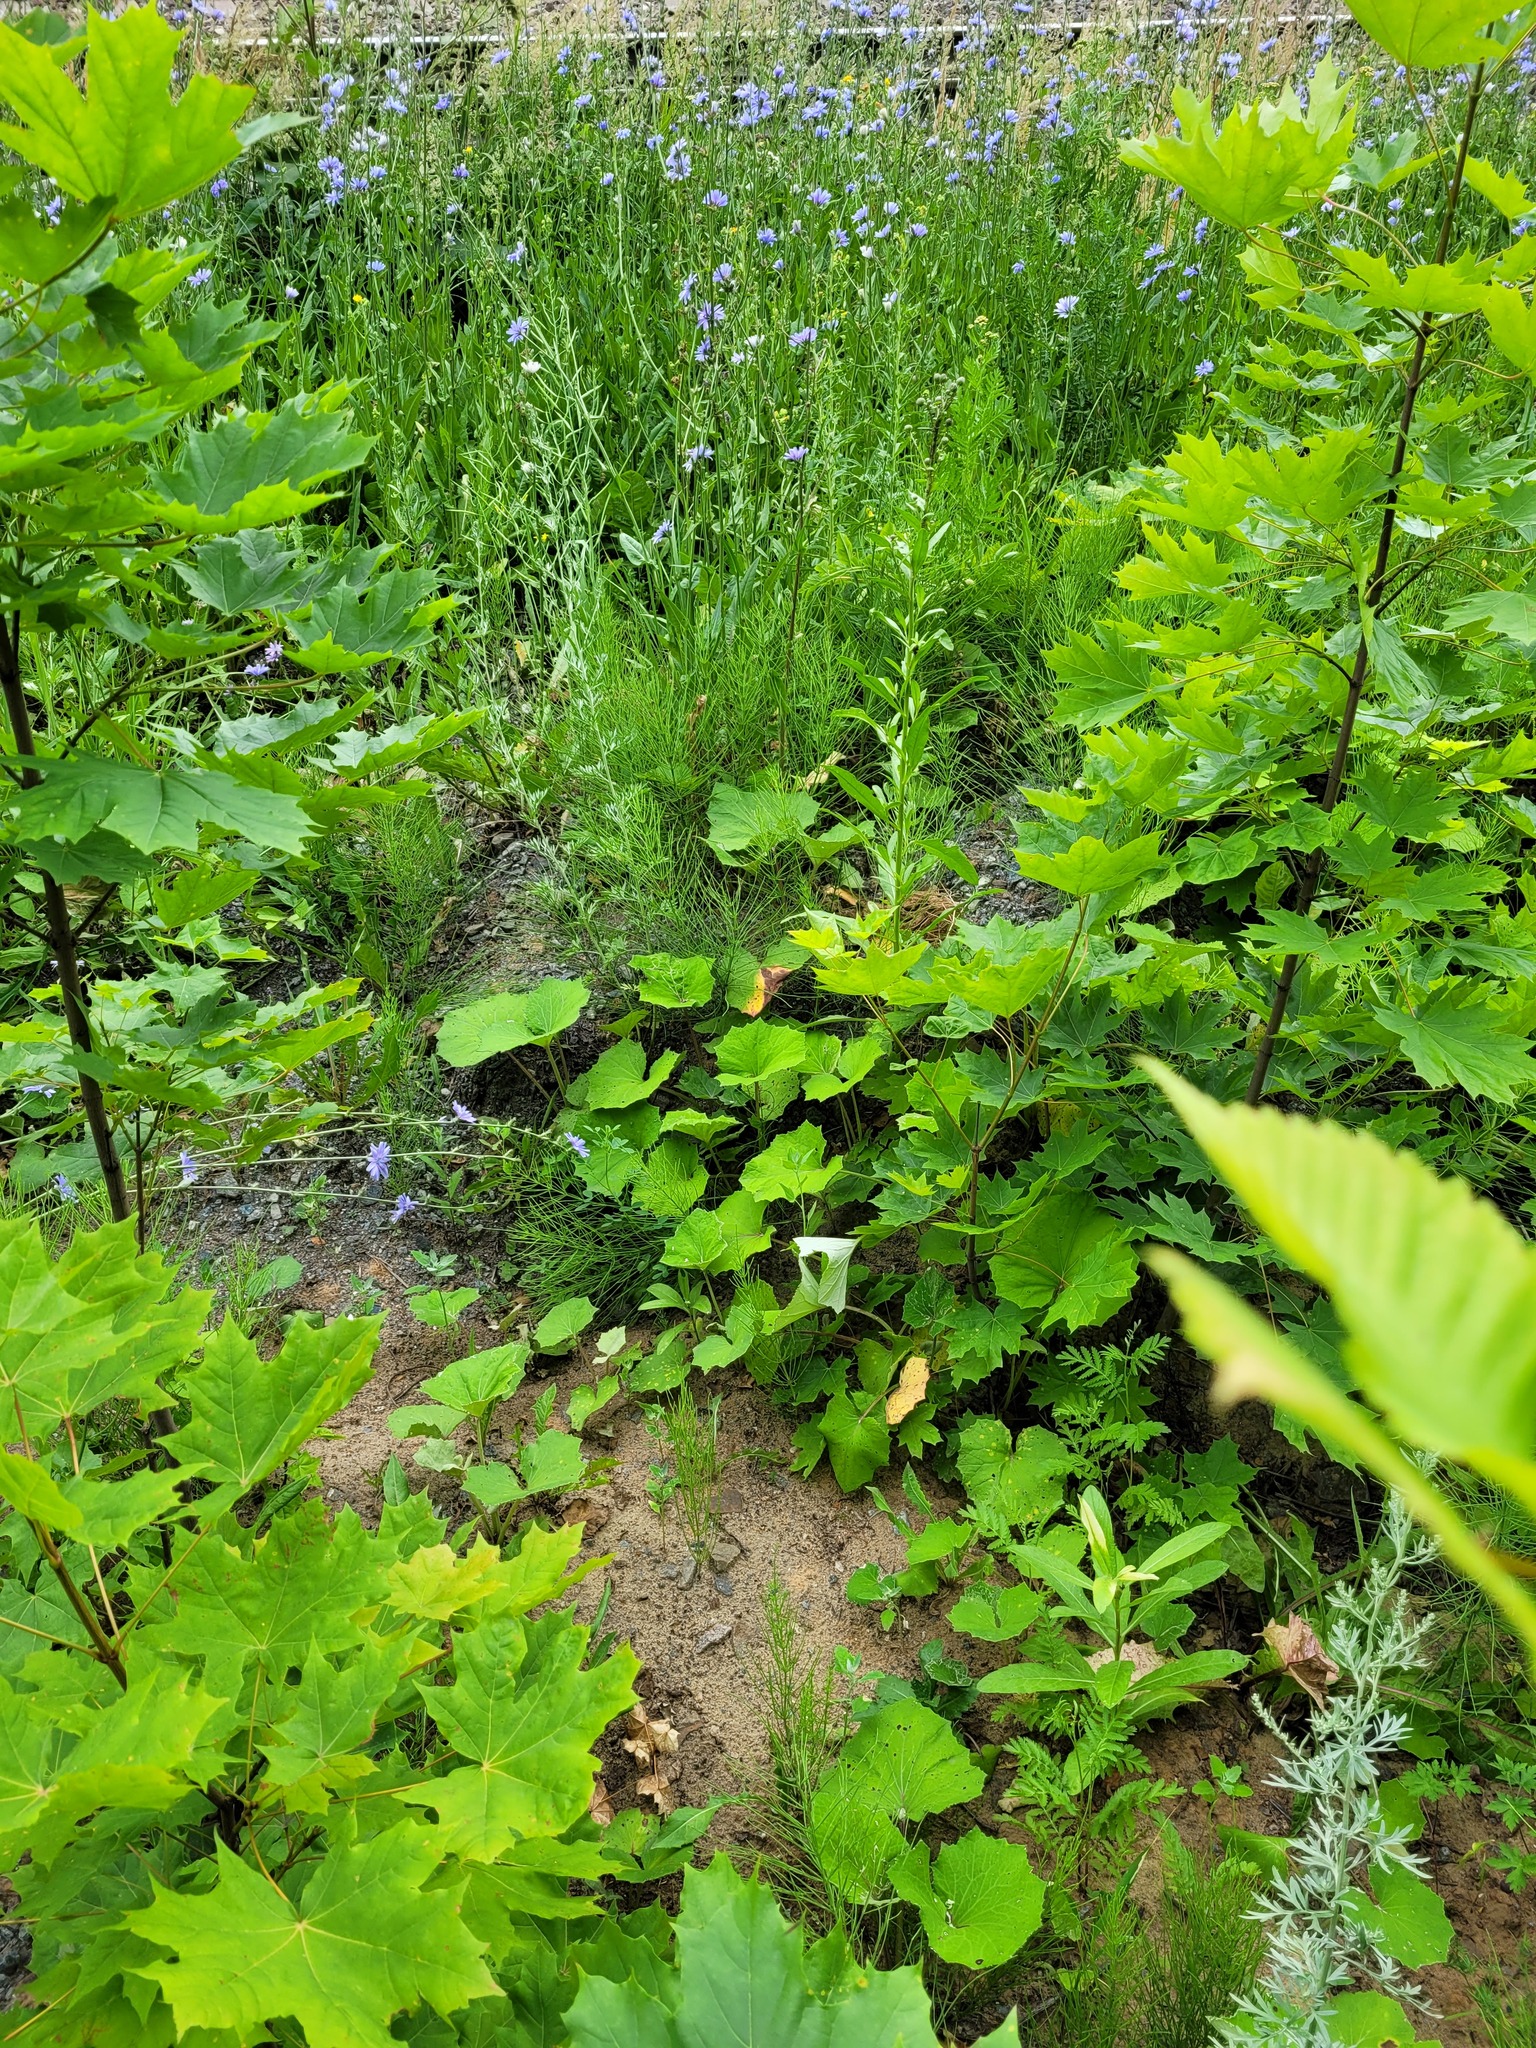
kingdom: Plantae
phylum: Tracheophyta
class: Magnoliopsida
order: Asterales
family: Asteraceae
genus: Tussilago
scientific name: Tussilago farfara
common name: Coltsfoot
